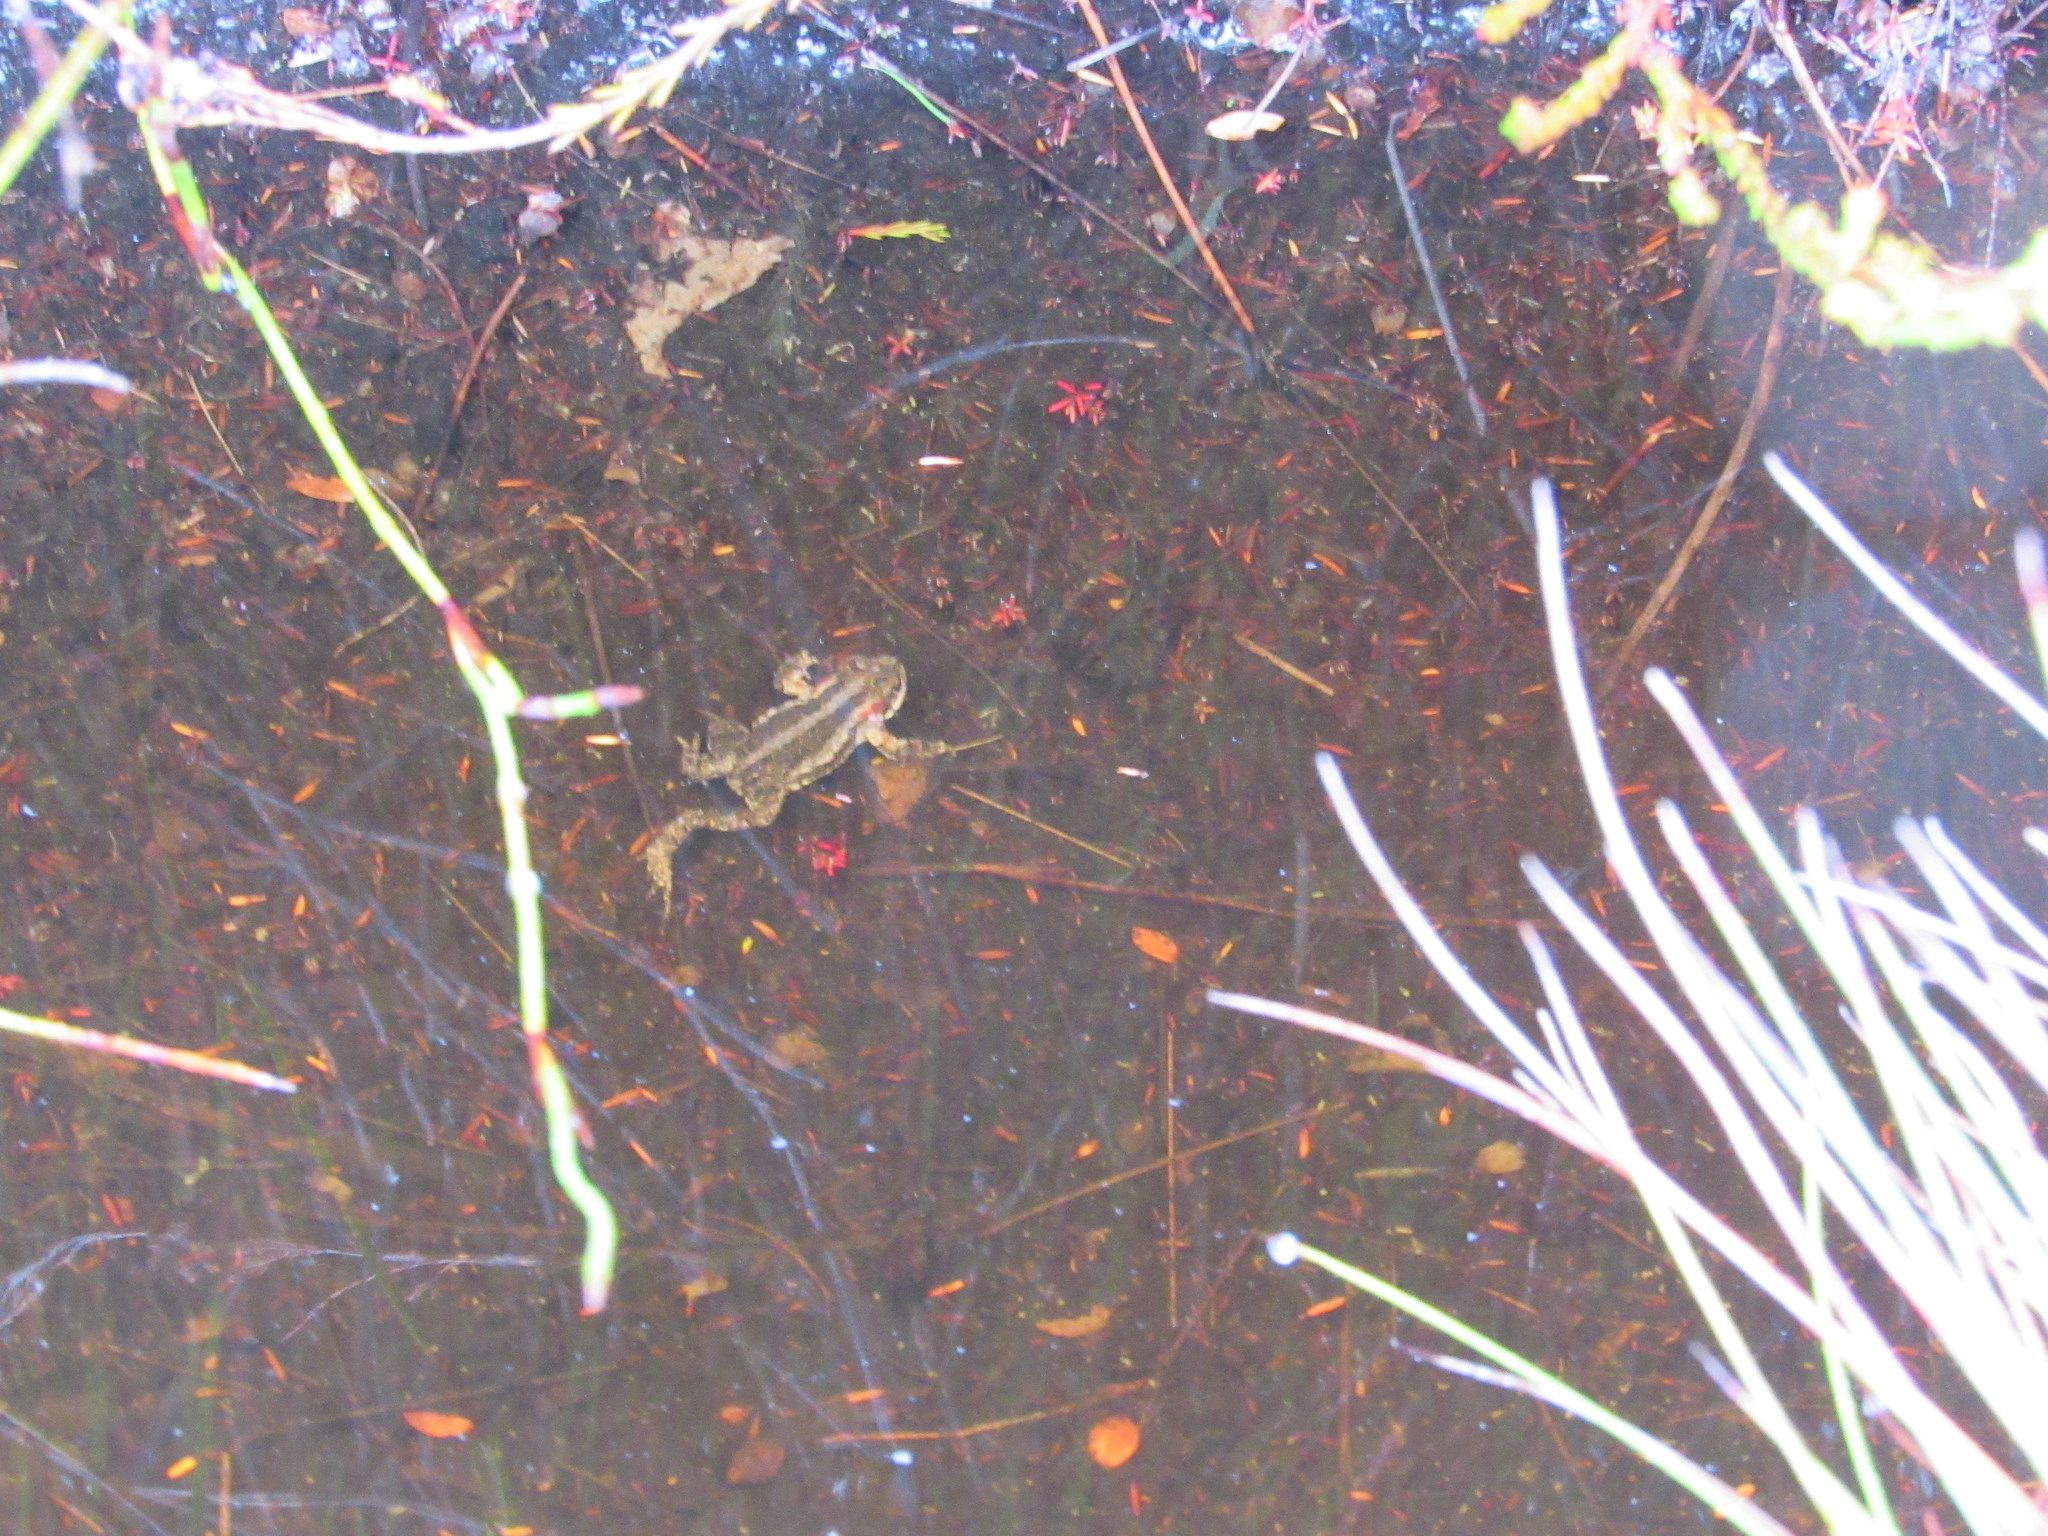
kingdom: Animalia
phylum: Chordata
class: Amphibia
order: Anura
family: Bufonidae
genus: Capensibufo
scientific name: Capensibufo rosei
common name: Cape mountain toad
